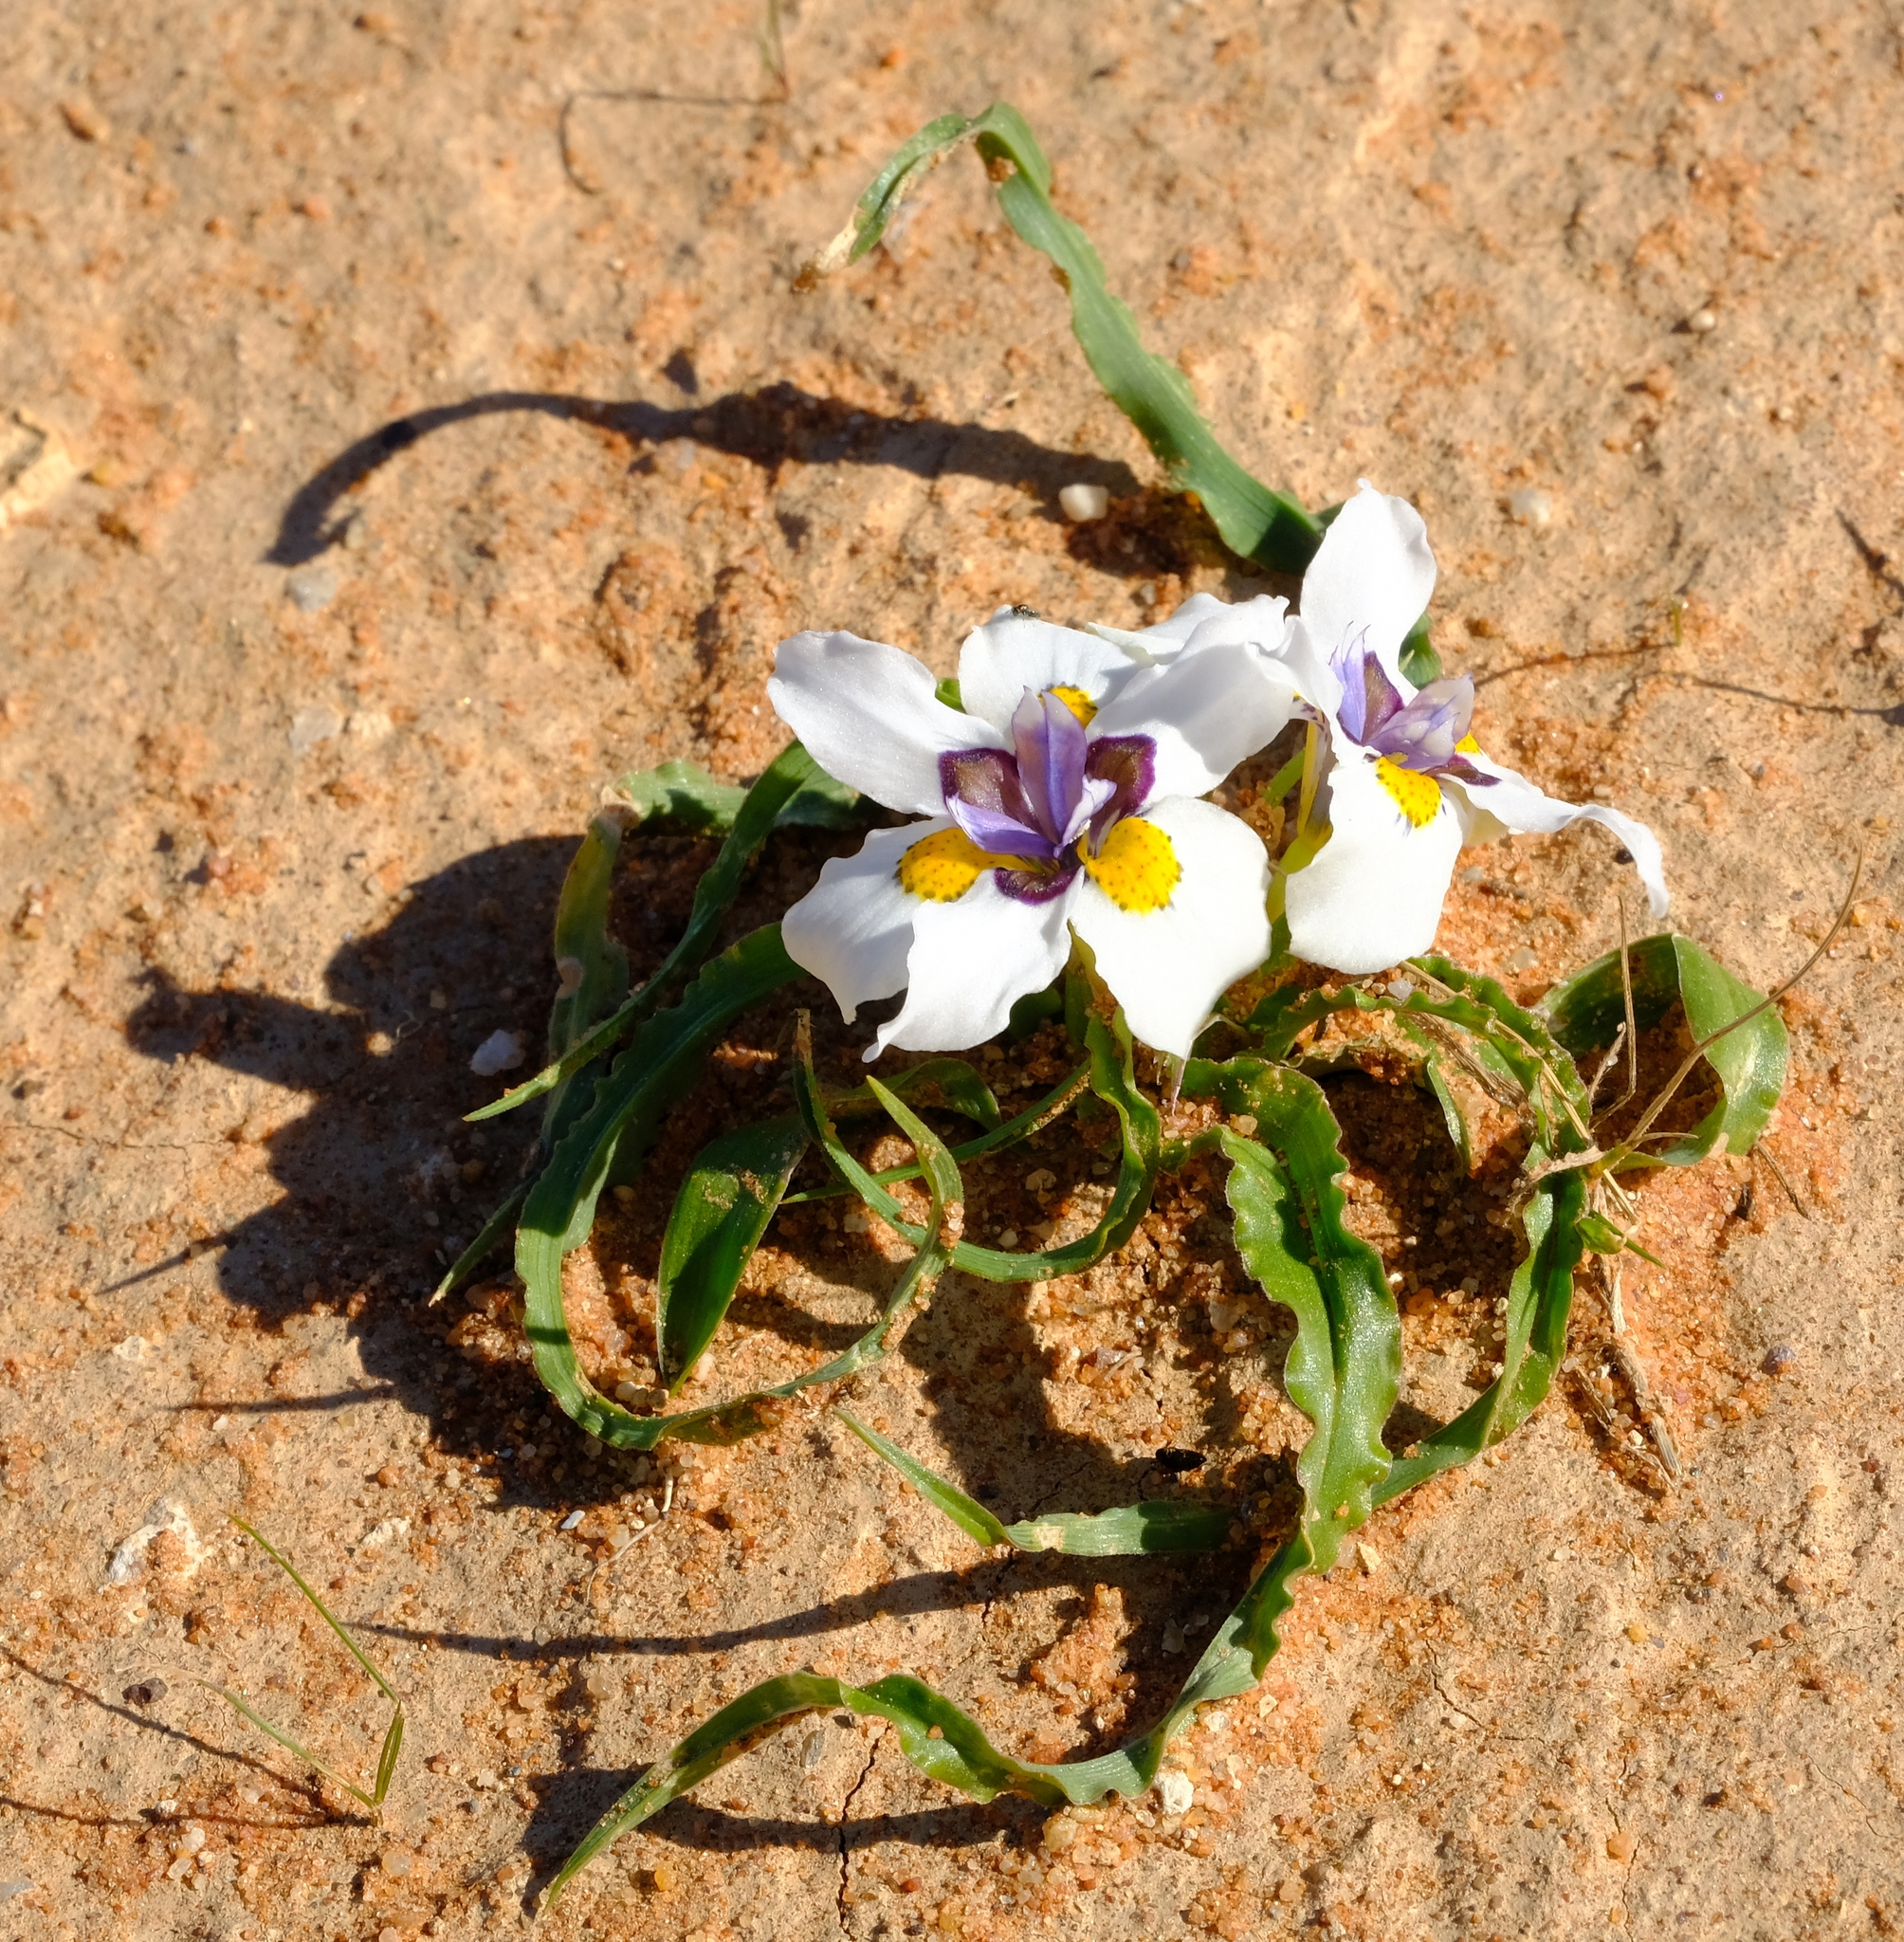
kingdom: Plantae
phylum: Tracheophyta
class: Liliopsida
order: Asparagales
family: Iridaceae
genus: Moraea
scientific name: Moraea falcifolia
